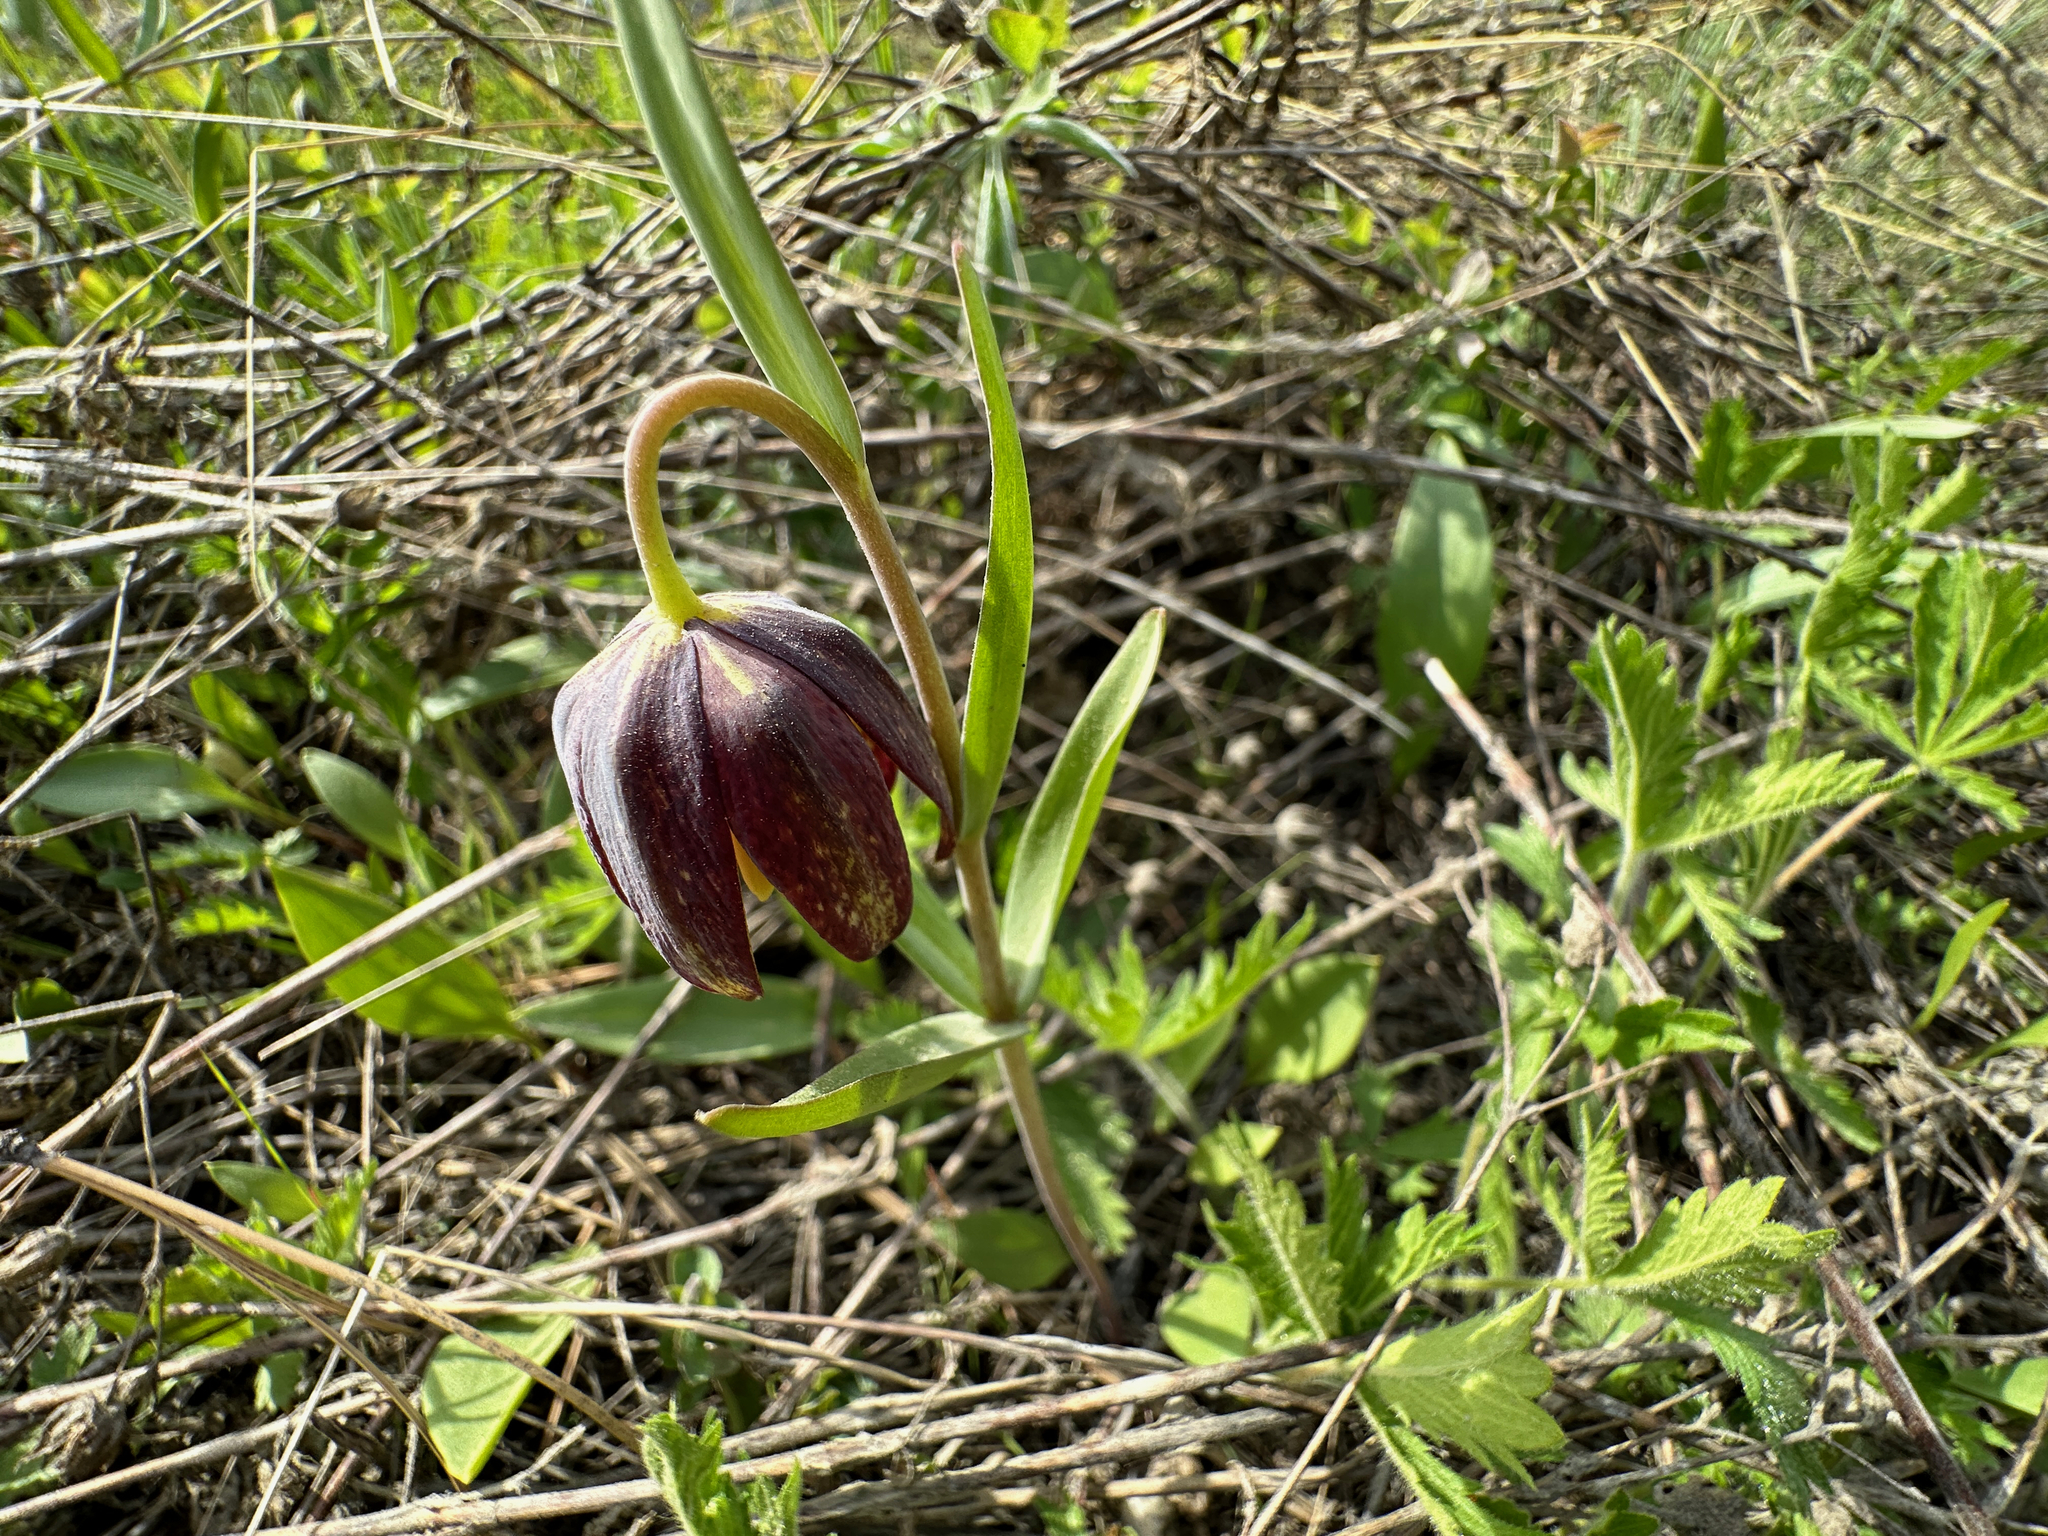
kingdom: Plantae
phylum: Tracheophyta
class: Liliopsida
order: Liliales
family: Liliaceae
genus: Fritillaria
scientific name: Fritillaria affinis
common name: Ojai fritillary
